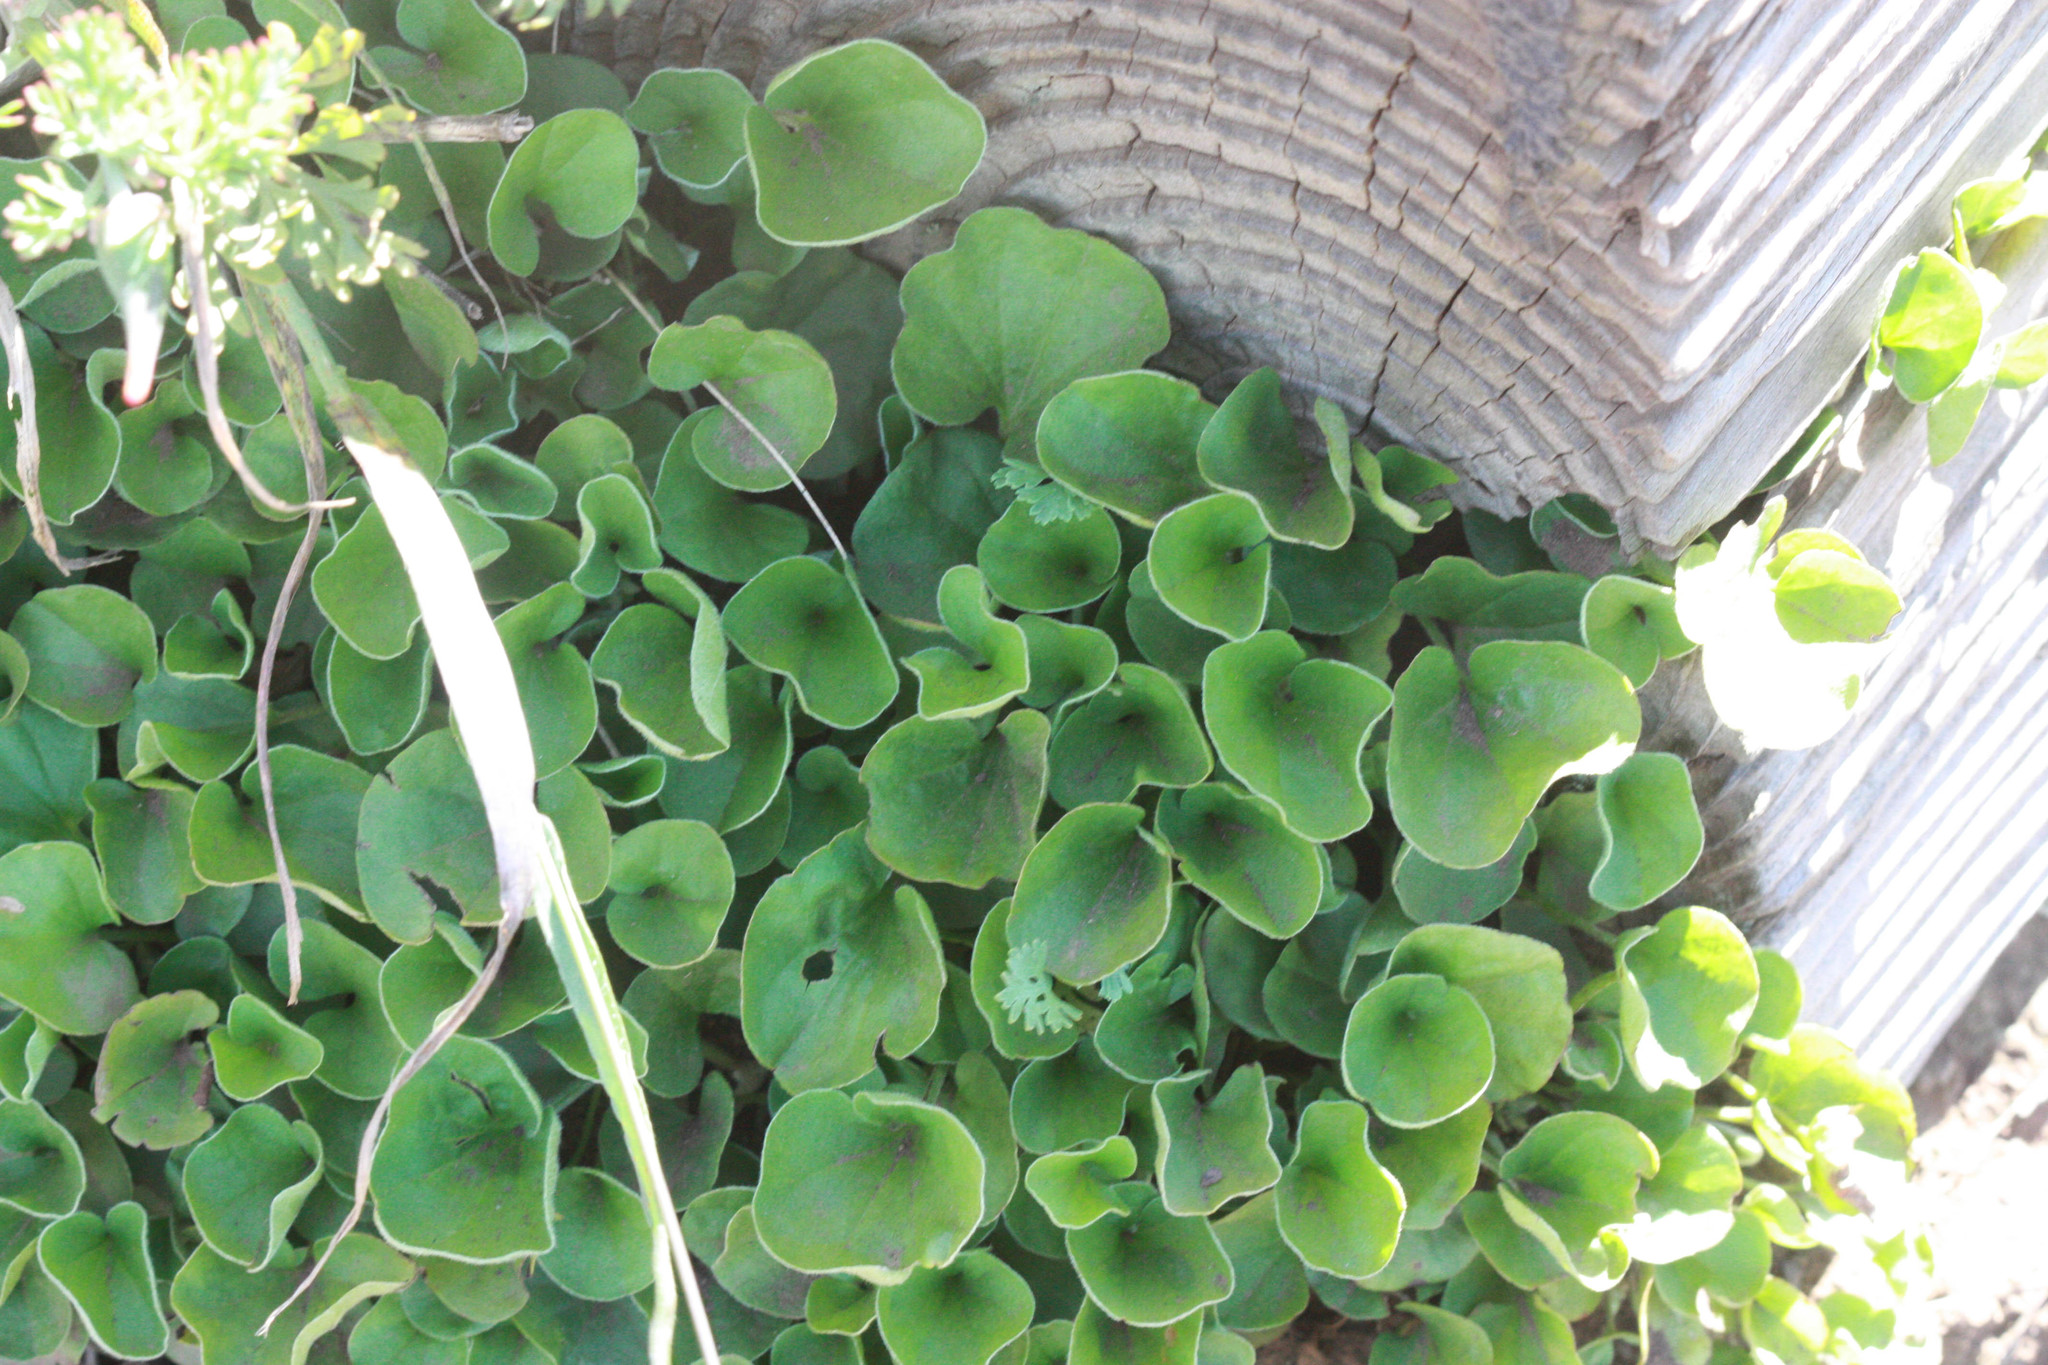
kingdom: Plantae
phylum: Tracheophyta
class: Magnoliopsida
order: Solanales
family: Convolvulaceae
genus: Dichondra
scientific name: Dichondra donelliana
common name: California ponysfoot
